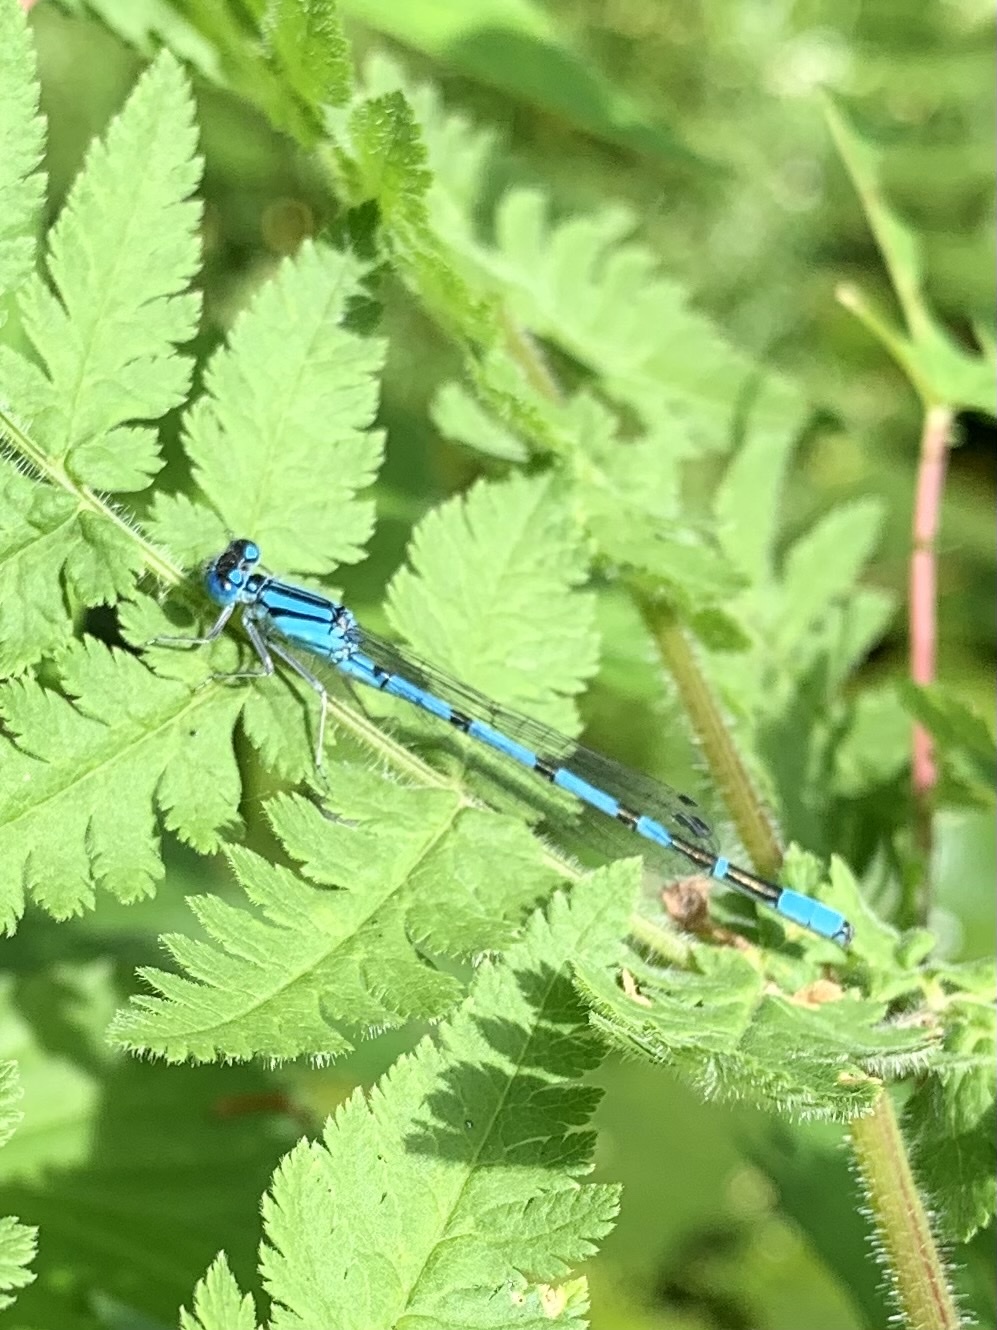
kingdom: Animalia
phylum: Arthropoda
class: Insecta
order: Odonata
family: Coenagrionidae
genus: Enallagma
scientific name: Enallagma cyathigerum
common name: Common blue damselfly
